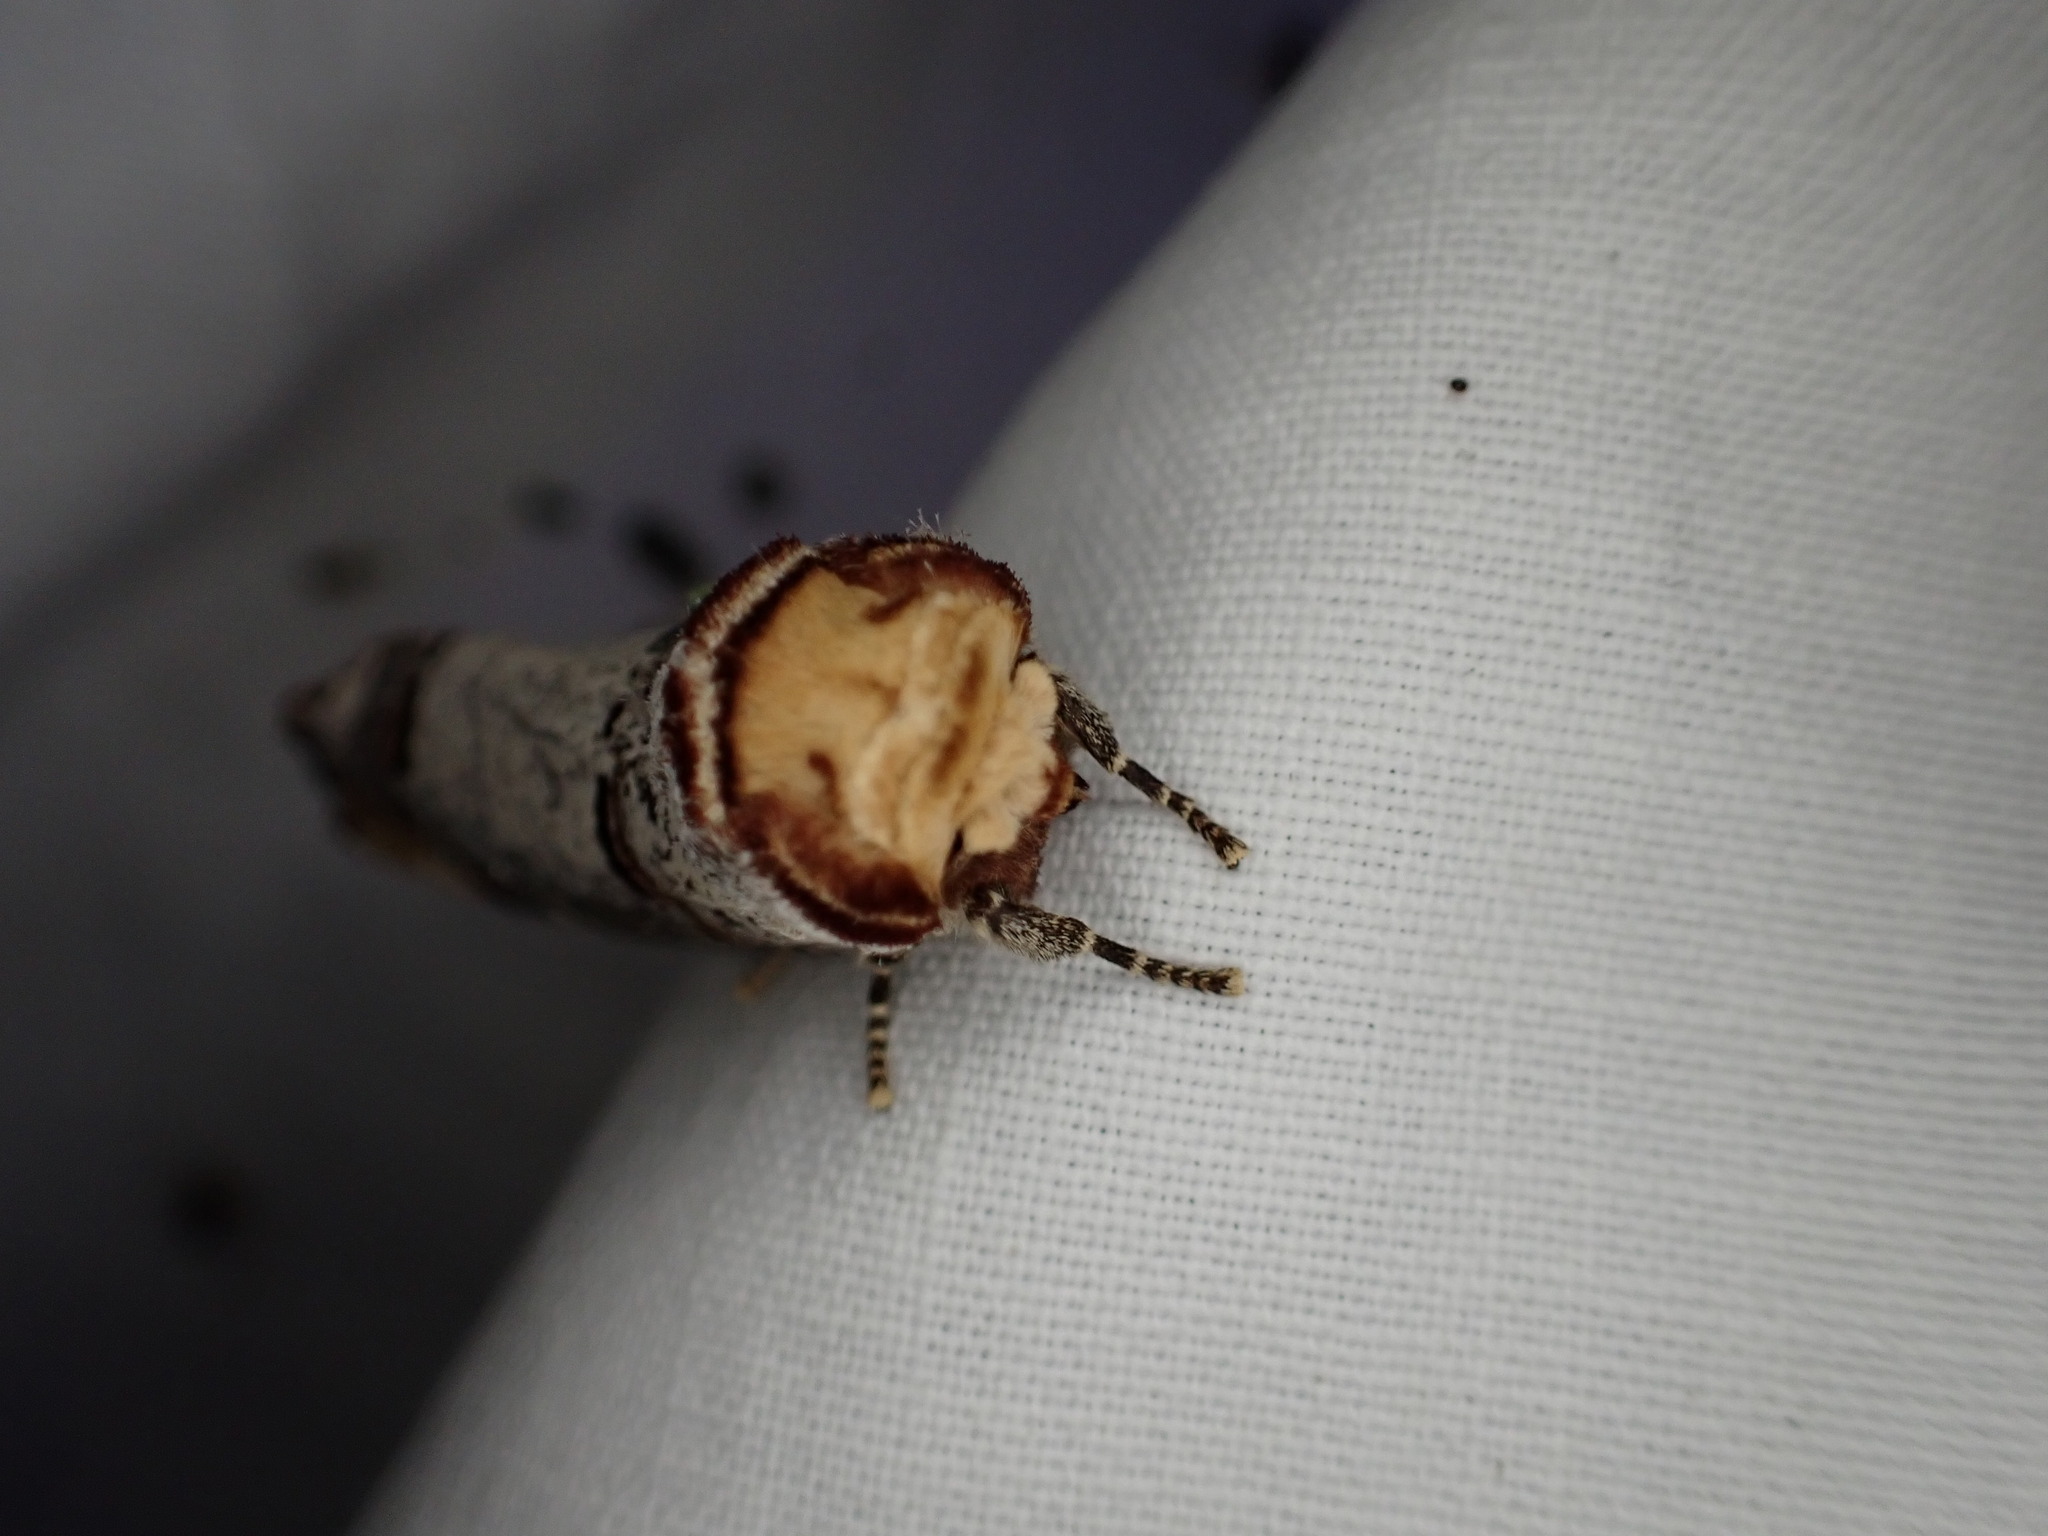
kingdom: Animalia
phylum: Arthropoda
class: Insecta
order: Lepidoptera
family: Notodontidae
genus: Phalera
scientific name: Phalera bucephala
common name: Buff-tip
